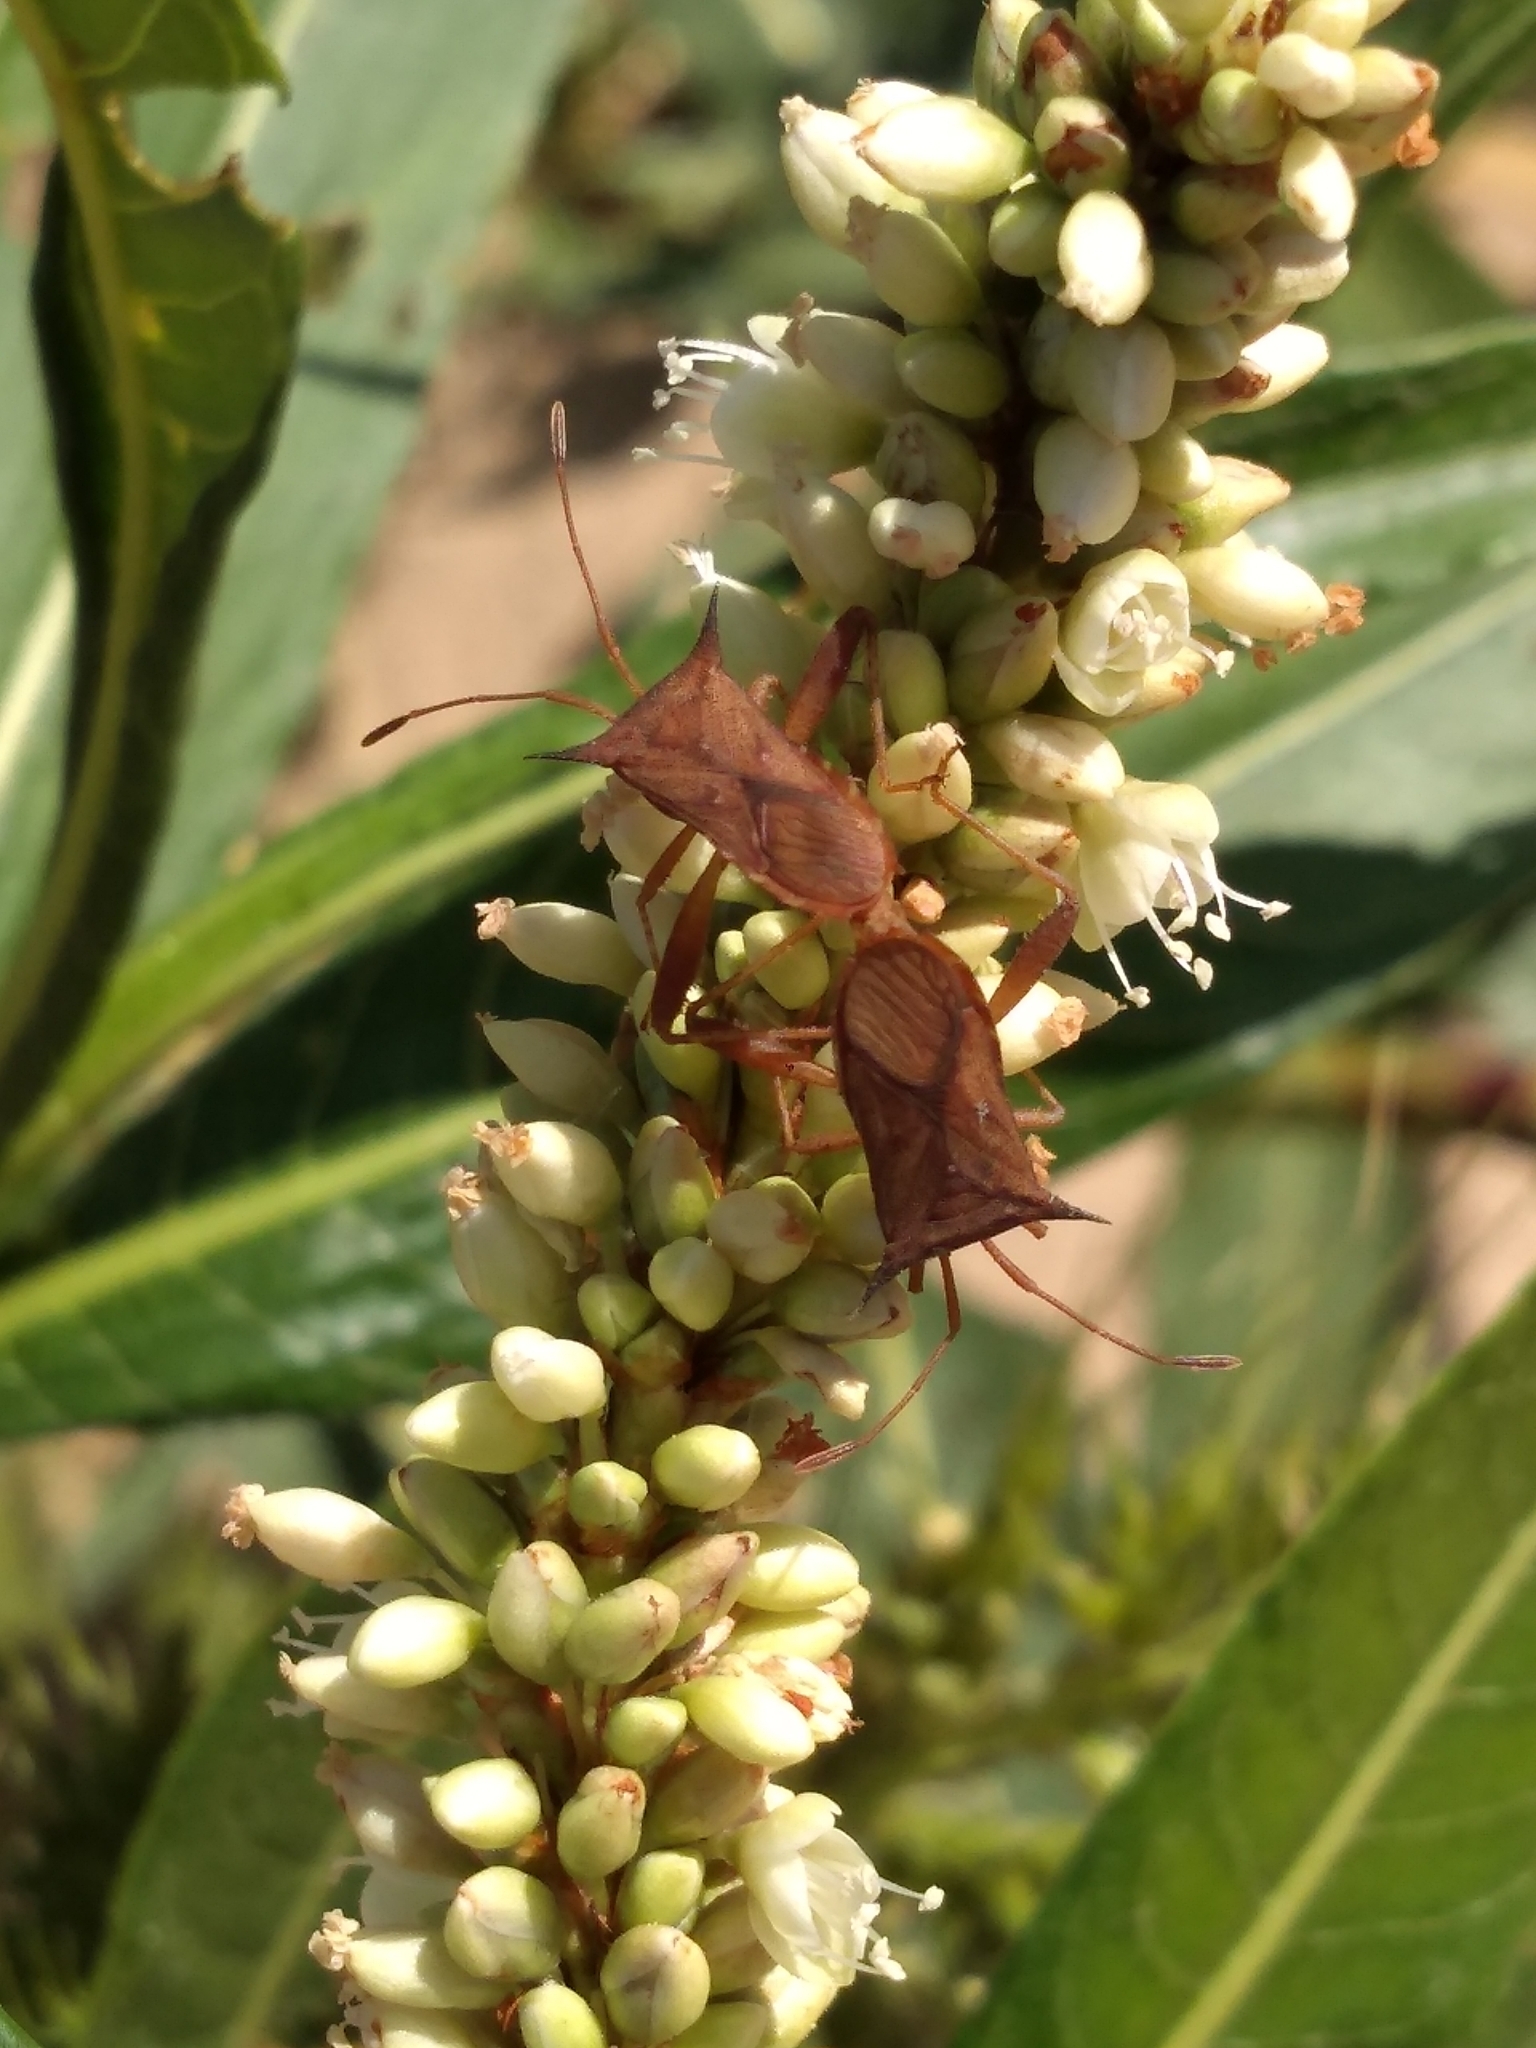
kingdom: Animalia
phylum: Arthropoda
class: Insecta
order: Hemiptera
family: Coreidae
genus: Zicca
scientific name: Zicca stali
